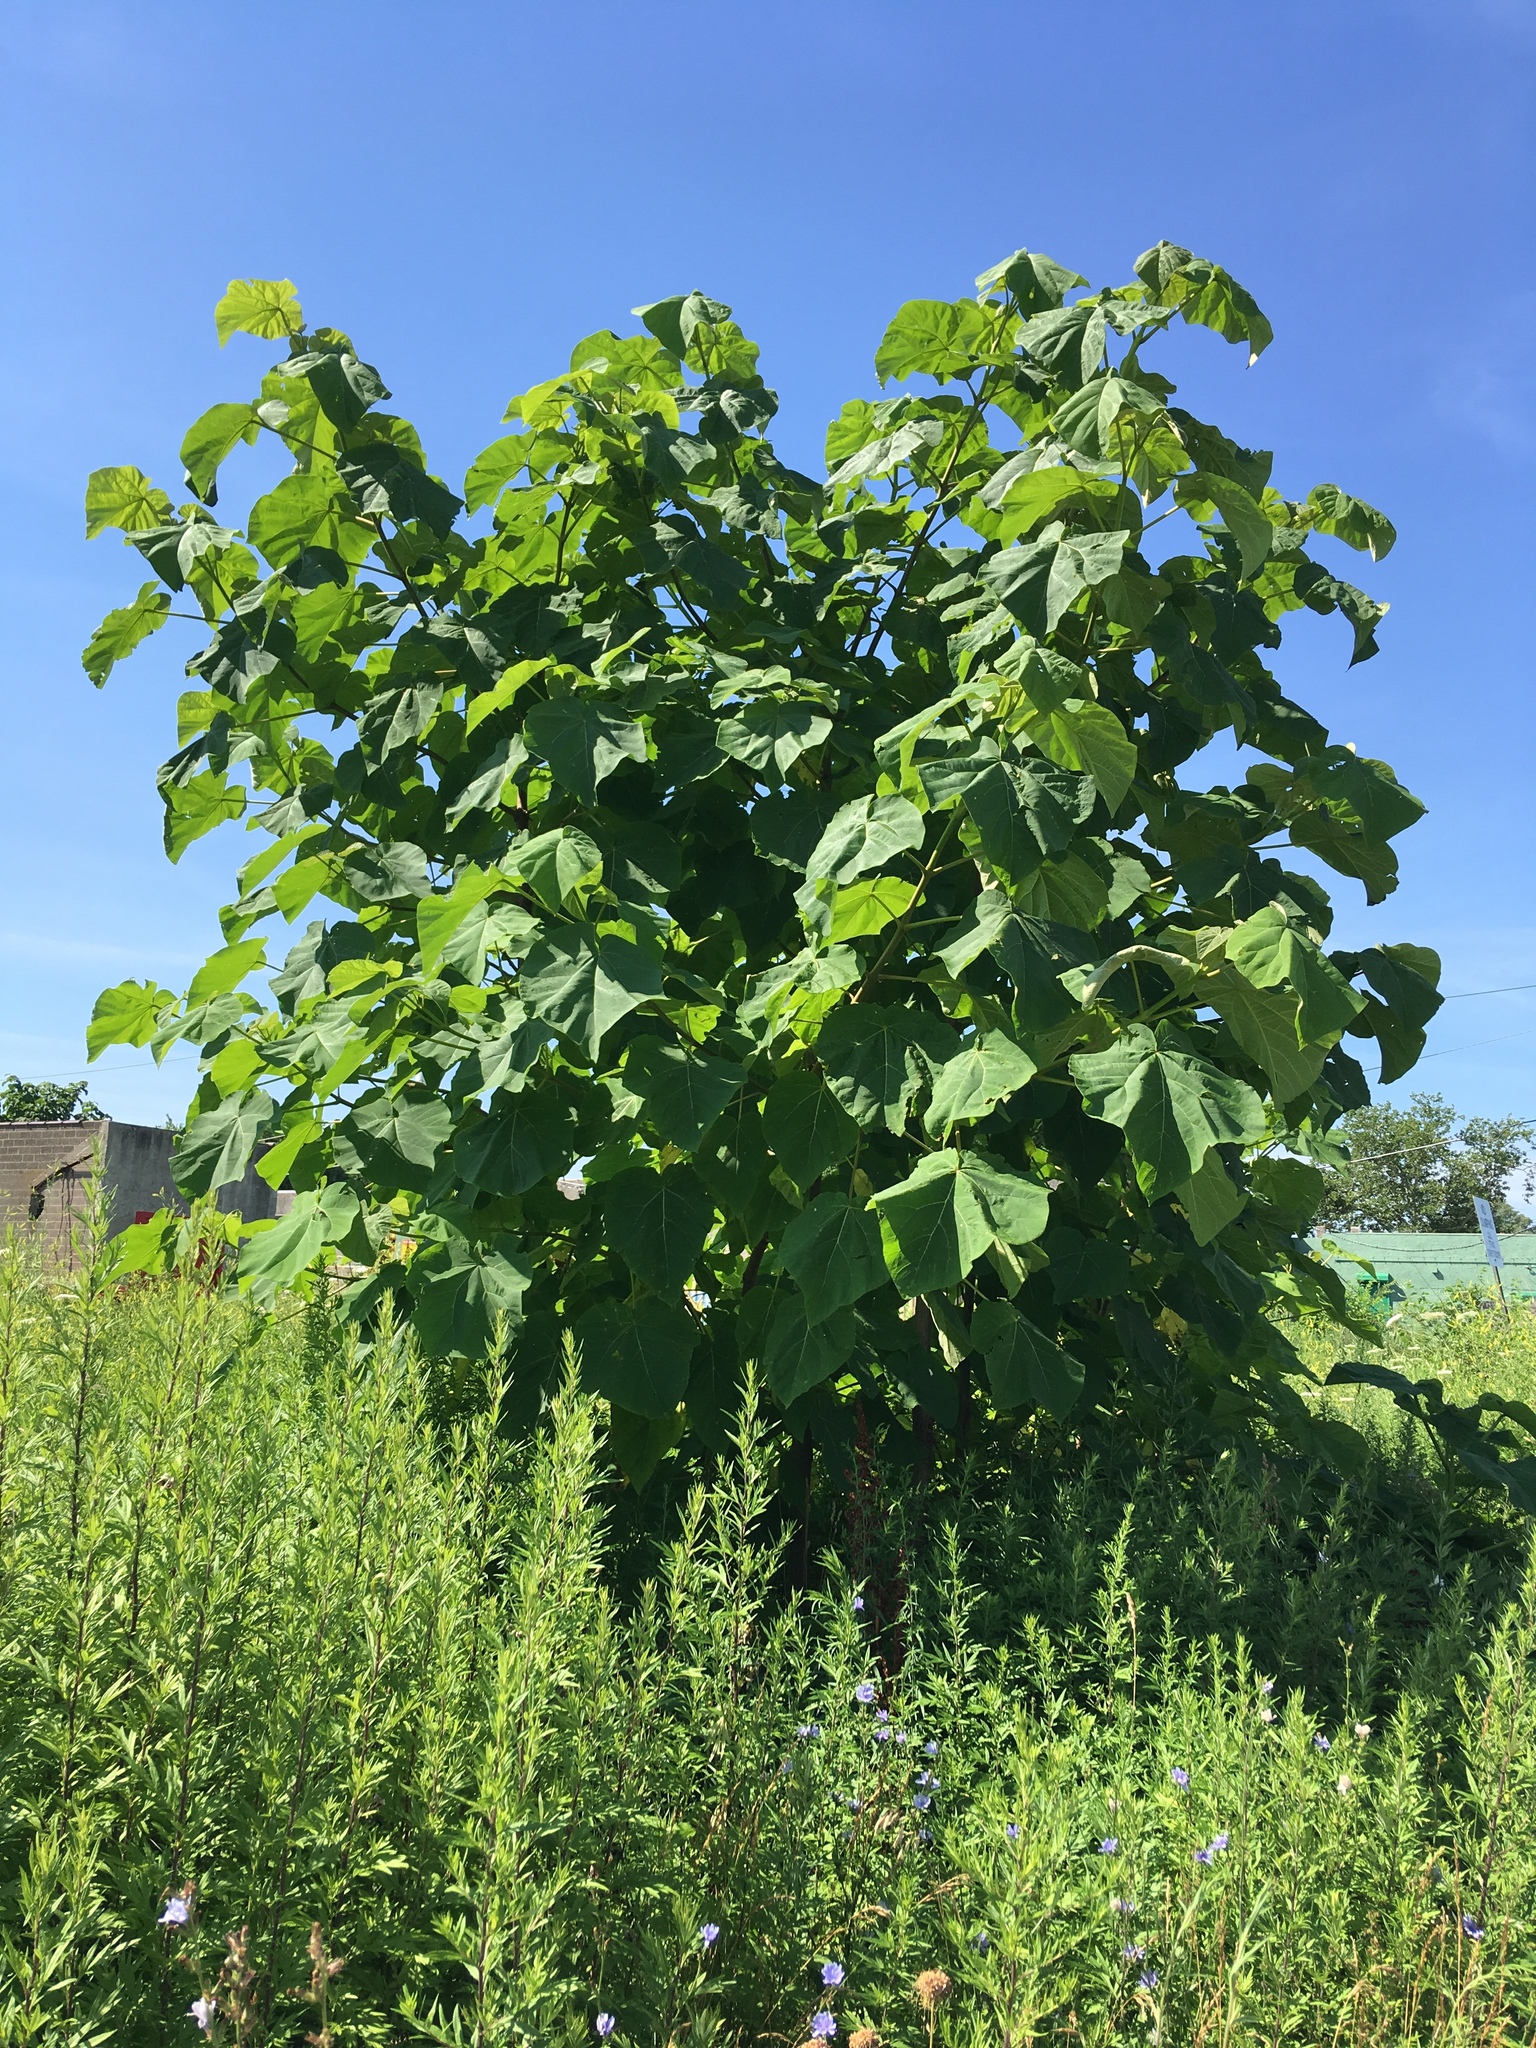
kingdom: Plantae
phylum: Tracheophyta
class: Magnoliopsida
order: Lamiales
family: Paulowniaceae
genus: Paulownia
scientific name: Paulownia tomentosa
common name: Foxglove-tree
